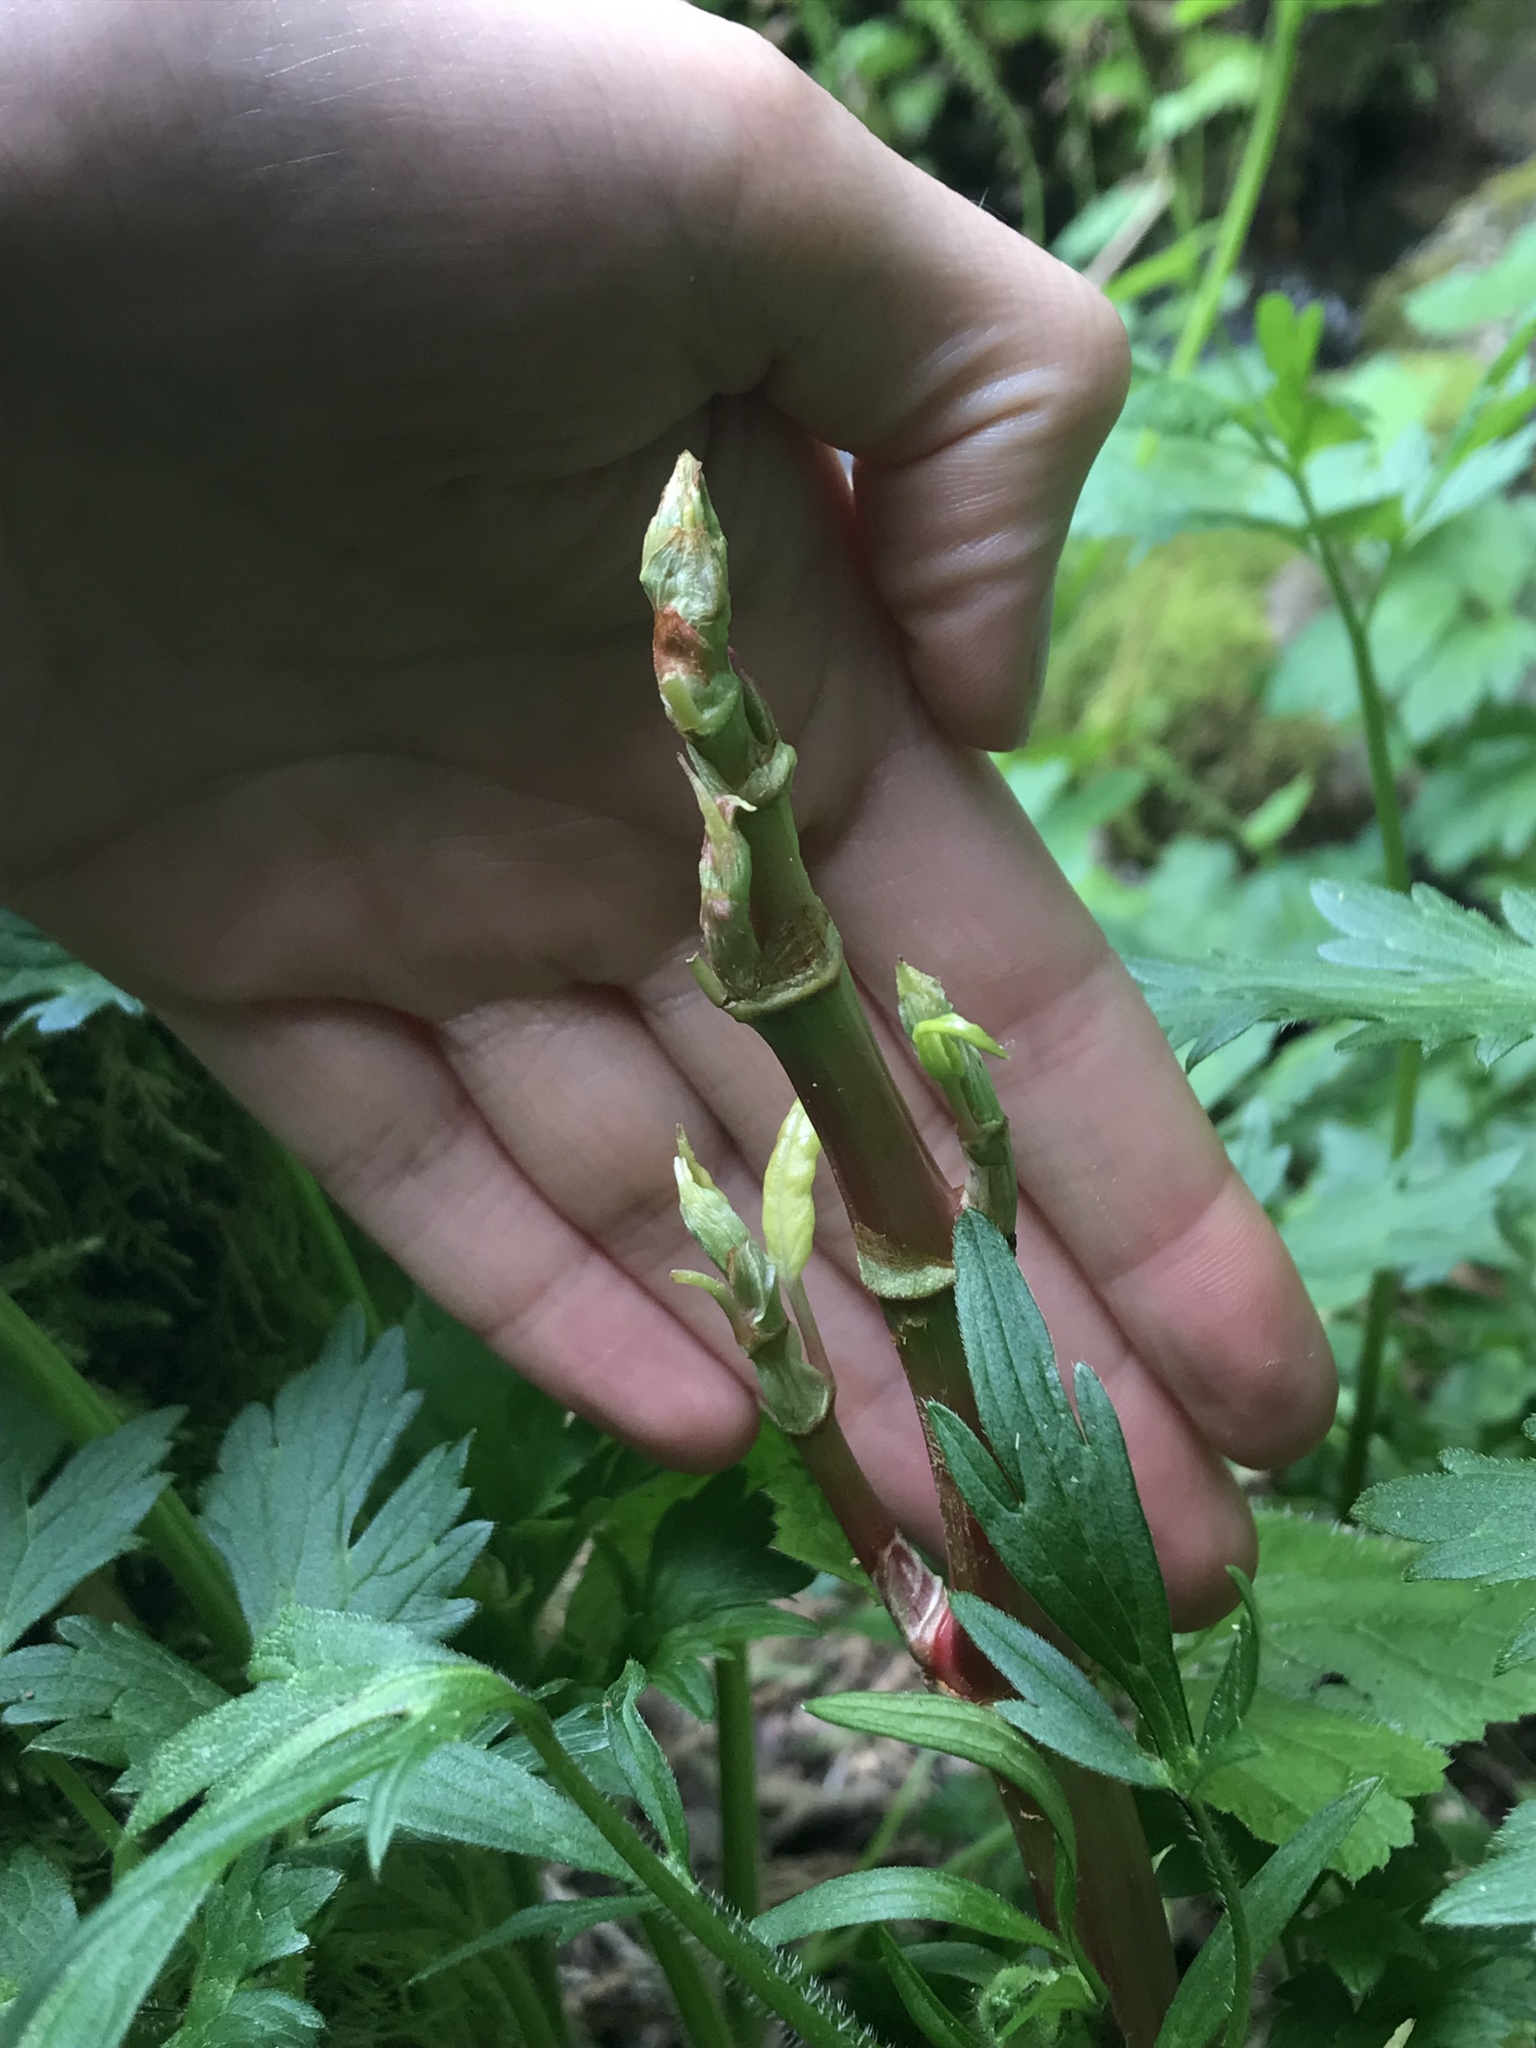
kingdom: Plantae
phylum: Tracheophyta
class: Magnoliopsida
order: Caryophyllales
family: Polygonaceae
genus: Reynoutria
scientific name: Reynoutria japonica
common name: Japanese knotweed
